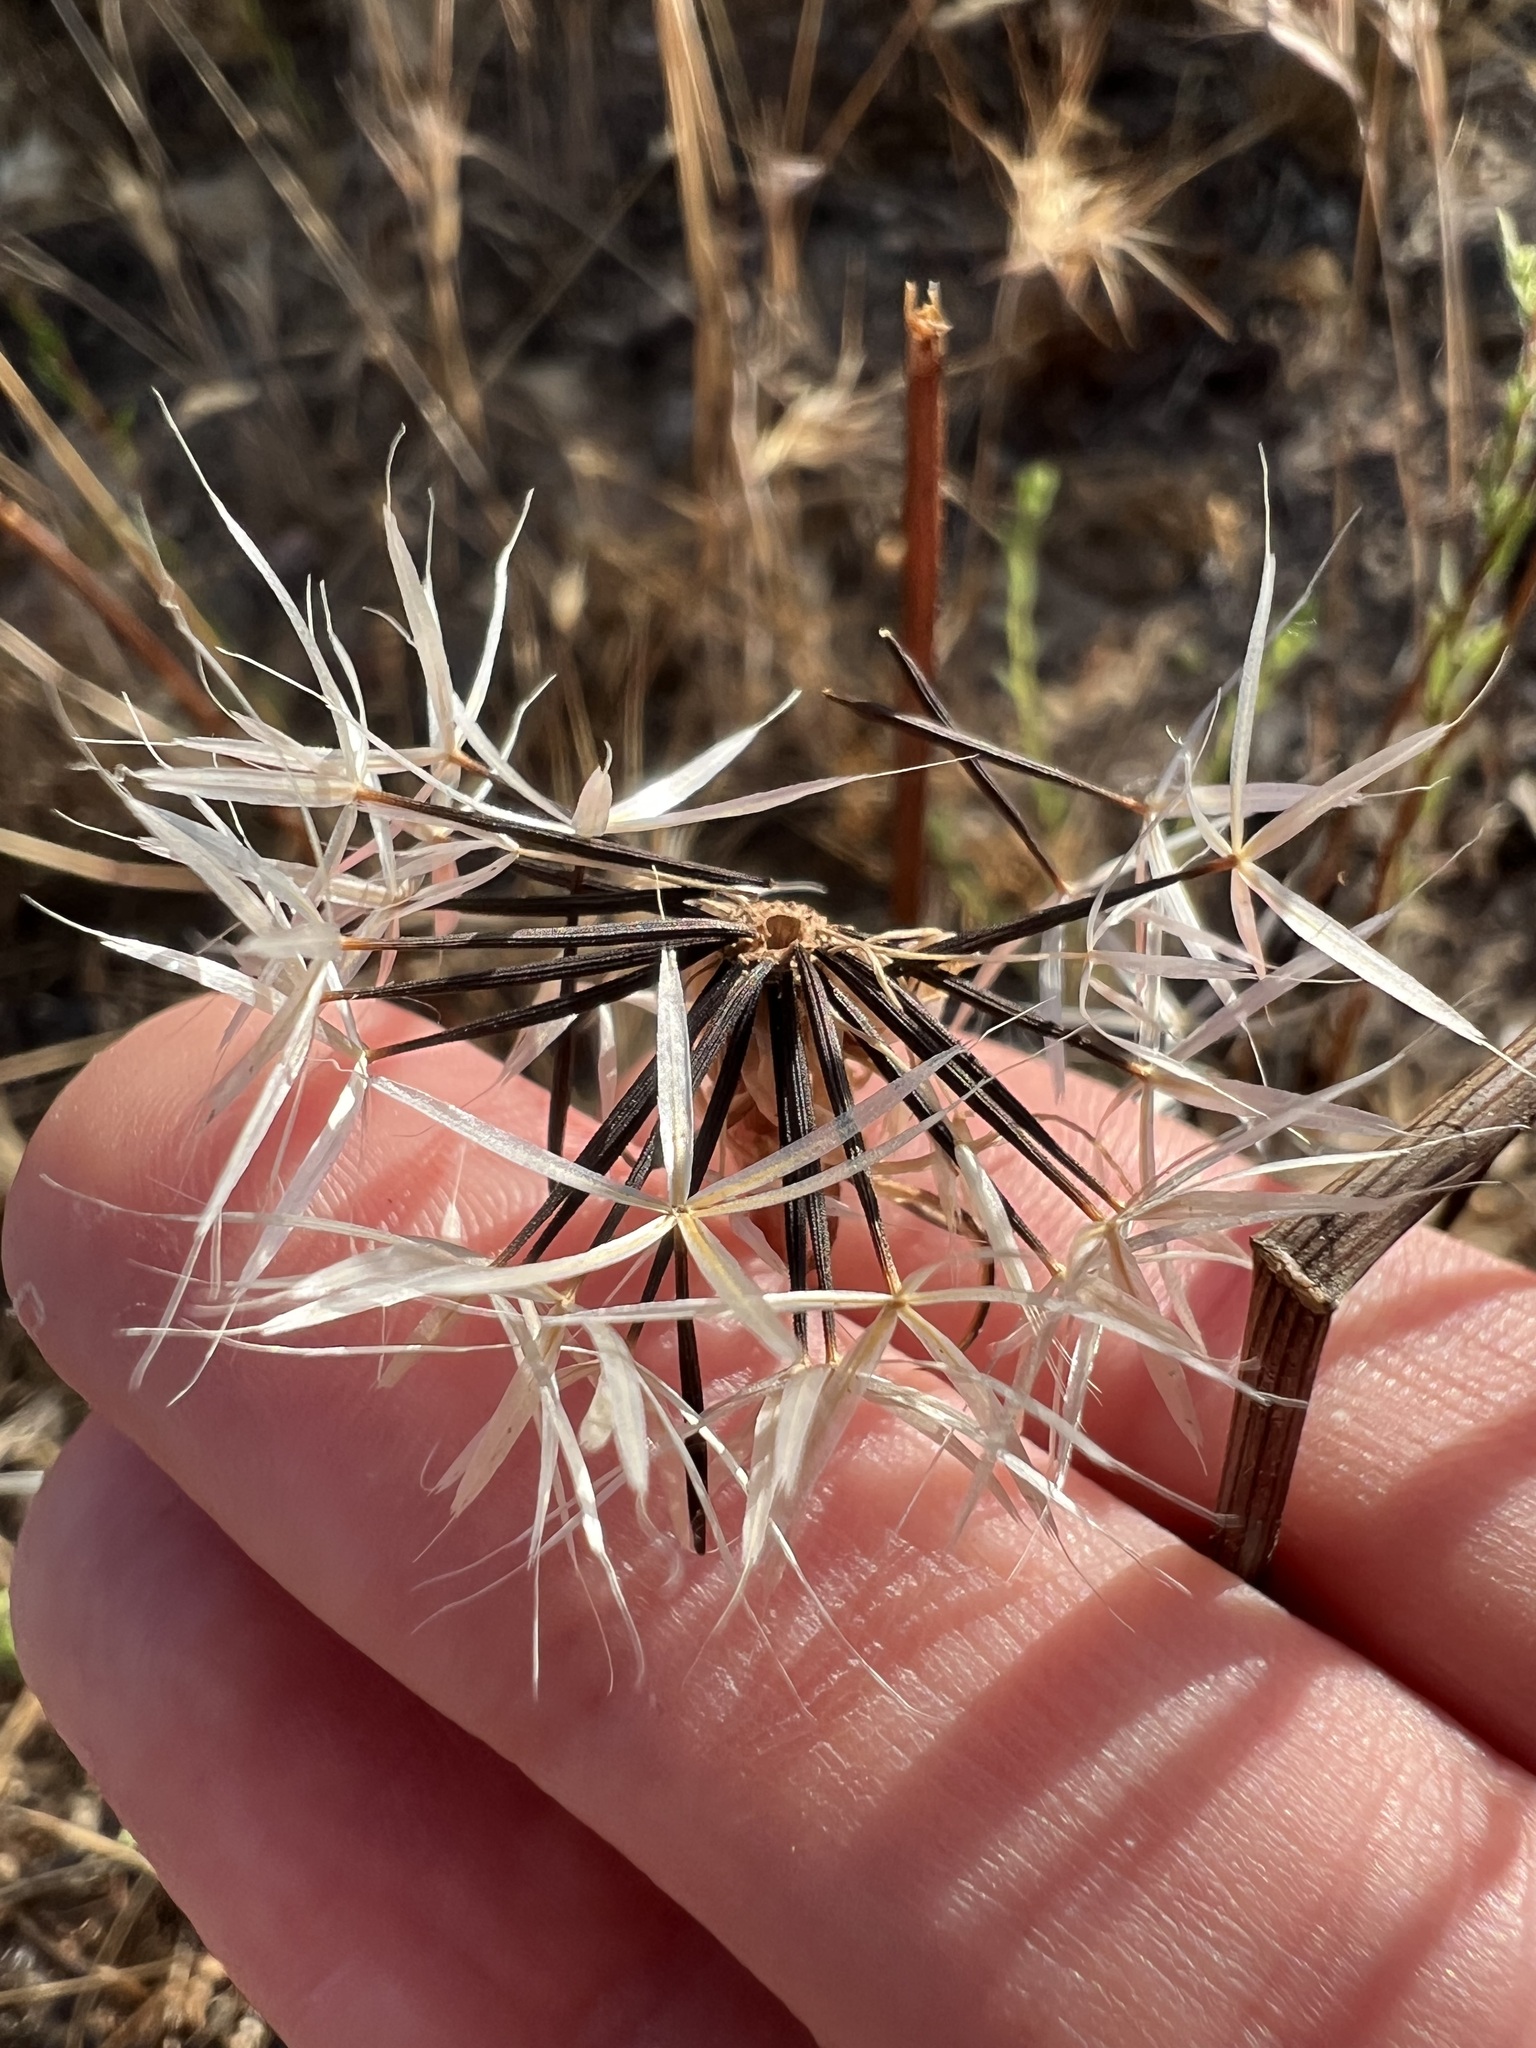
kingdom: Plantae
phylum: Tracheophyta
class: Magnoliopsida
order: Asterales
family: Asteraceae
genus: Microseris
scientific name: Microseris lindleyi
